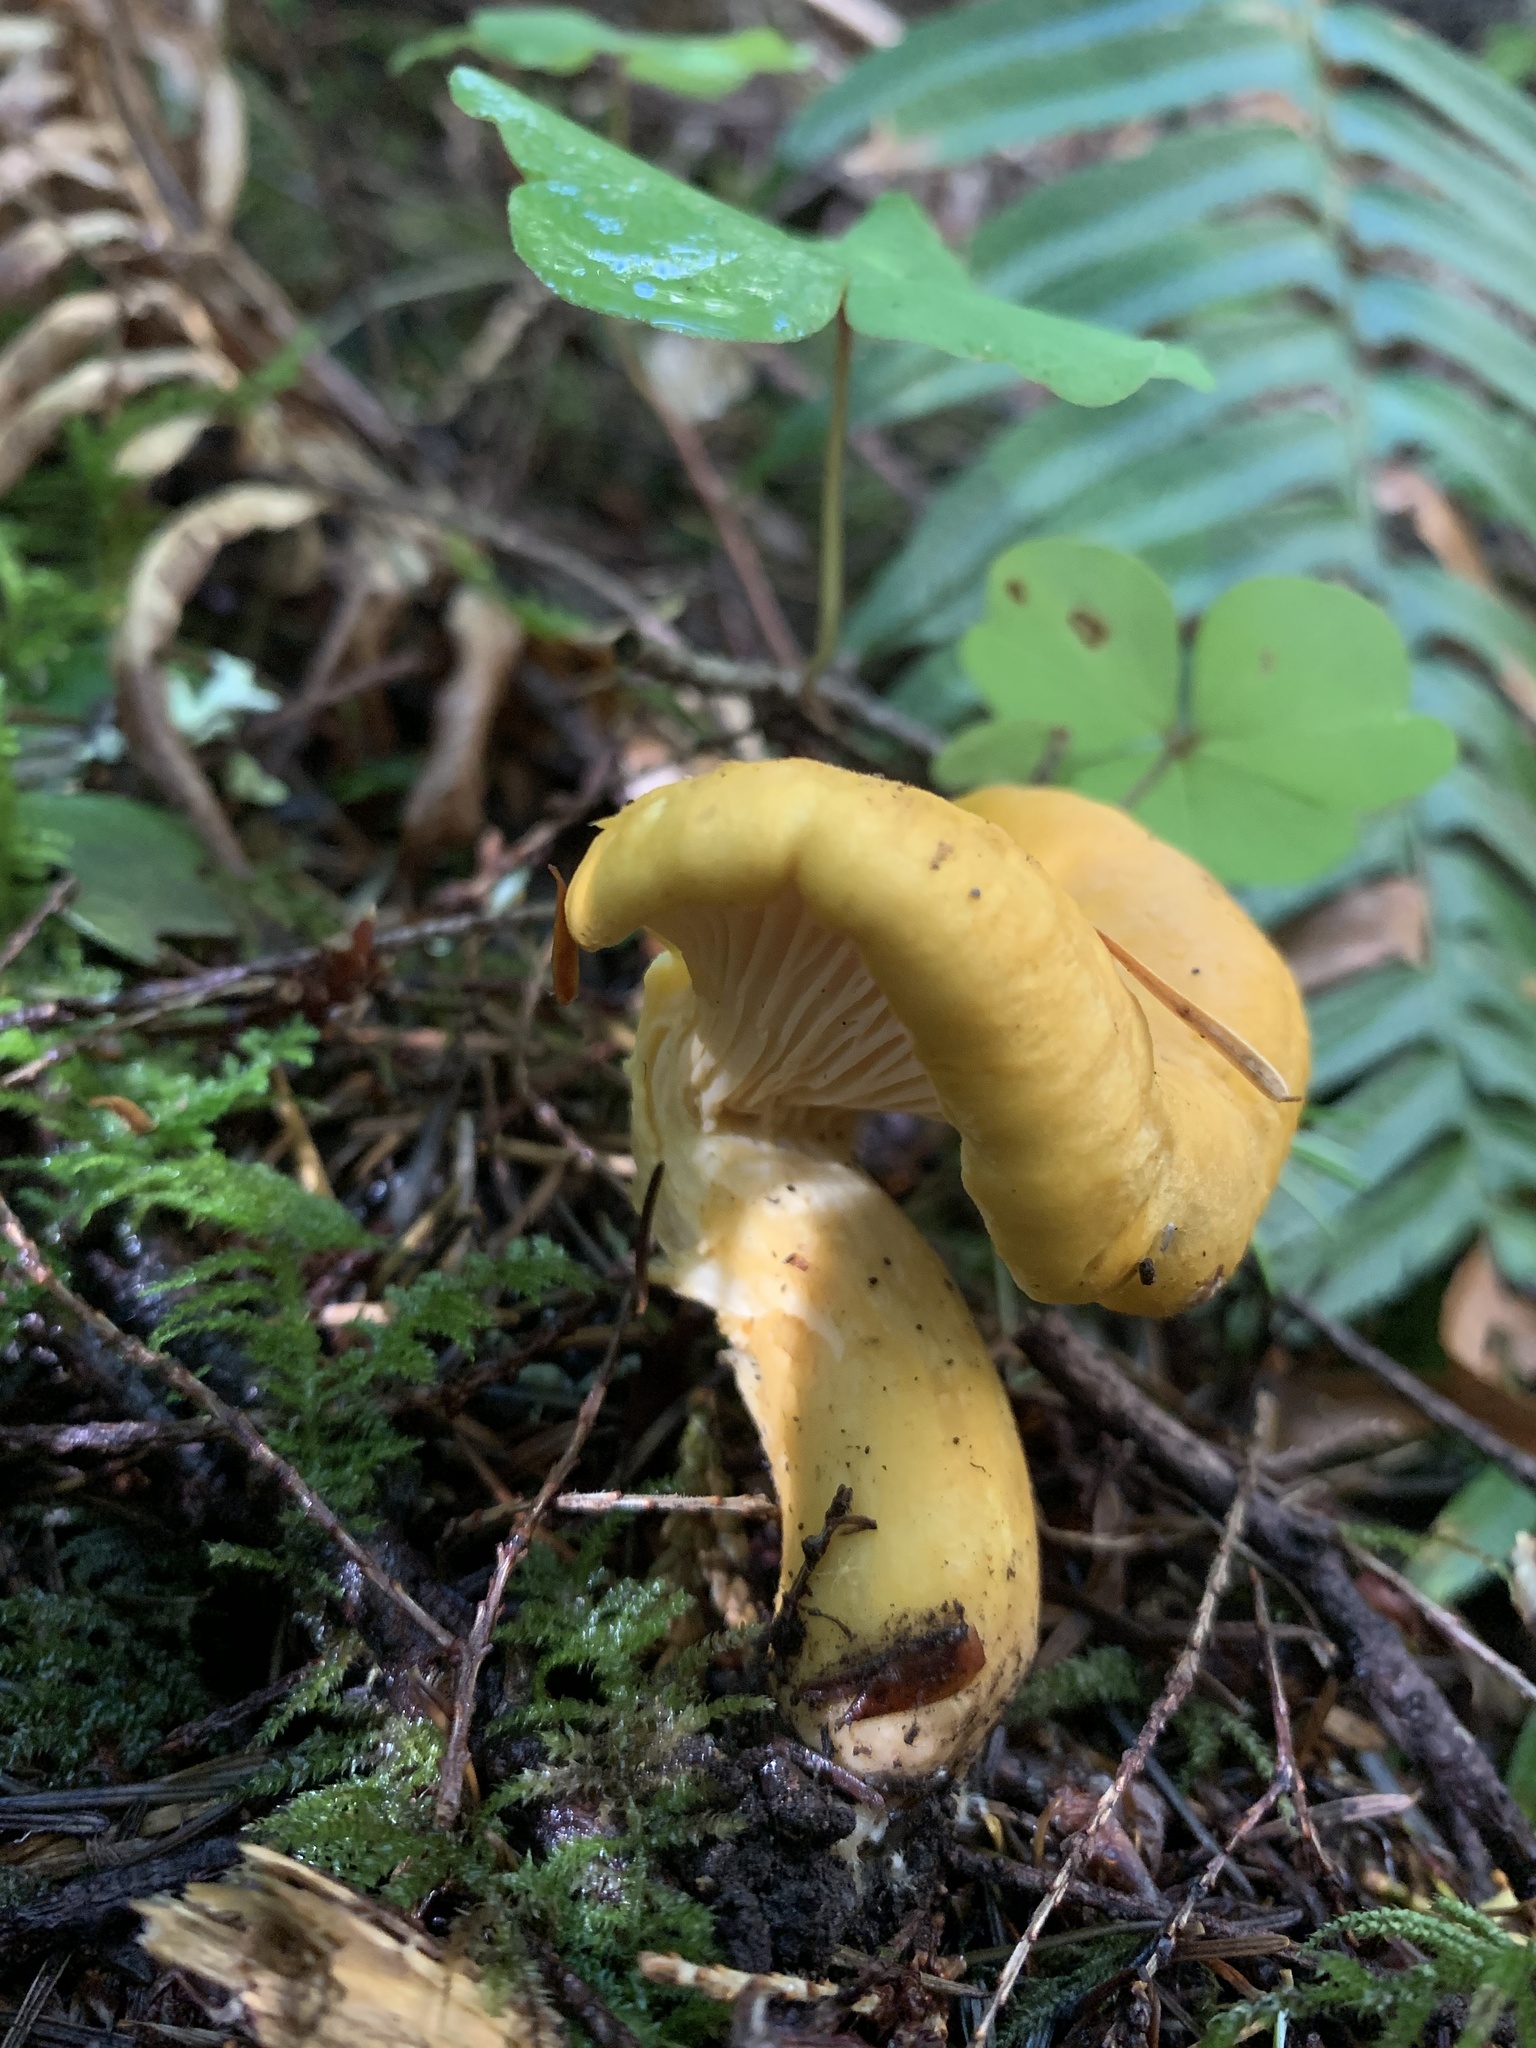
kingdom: Fungi
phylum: Basidiomycota
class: Agaricomycetes
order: Cantharellales
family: Hydnaceae
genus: Cantharellus
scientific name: Cantharellus formosus
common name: Pacific golden chanterelle
